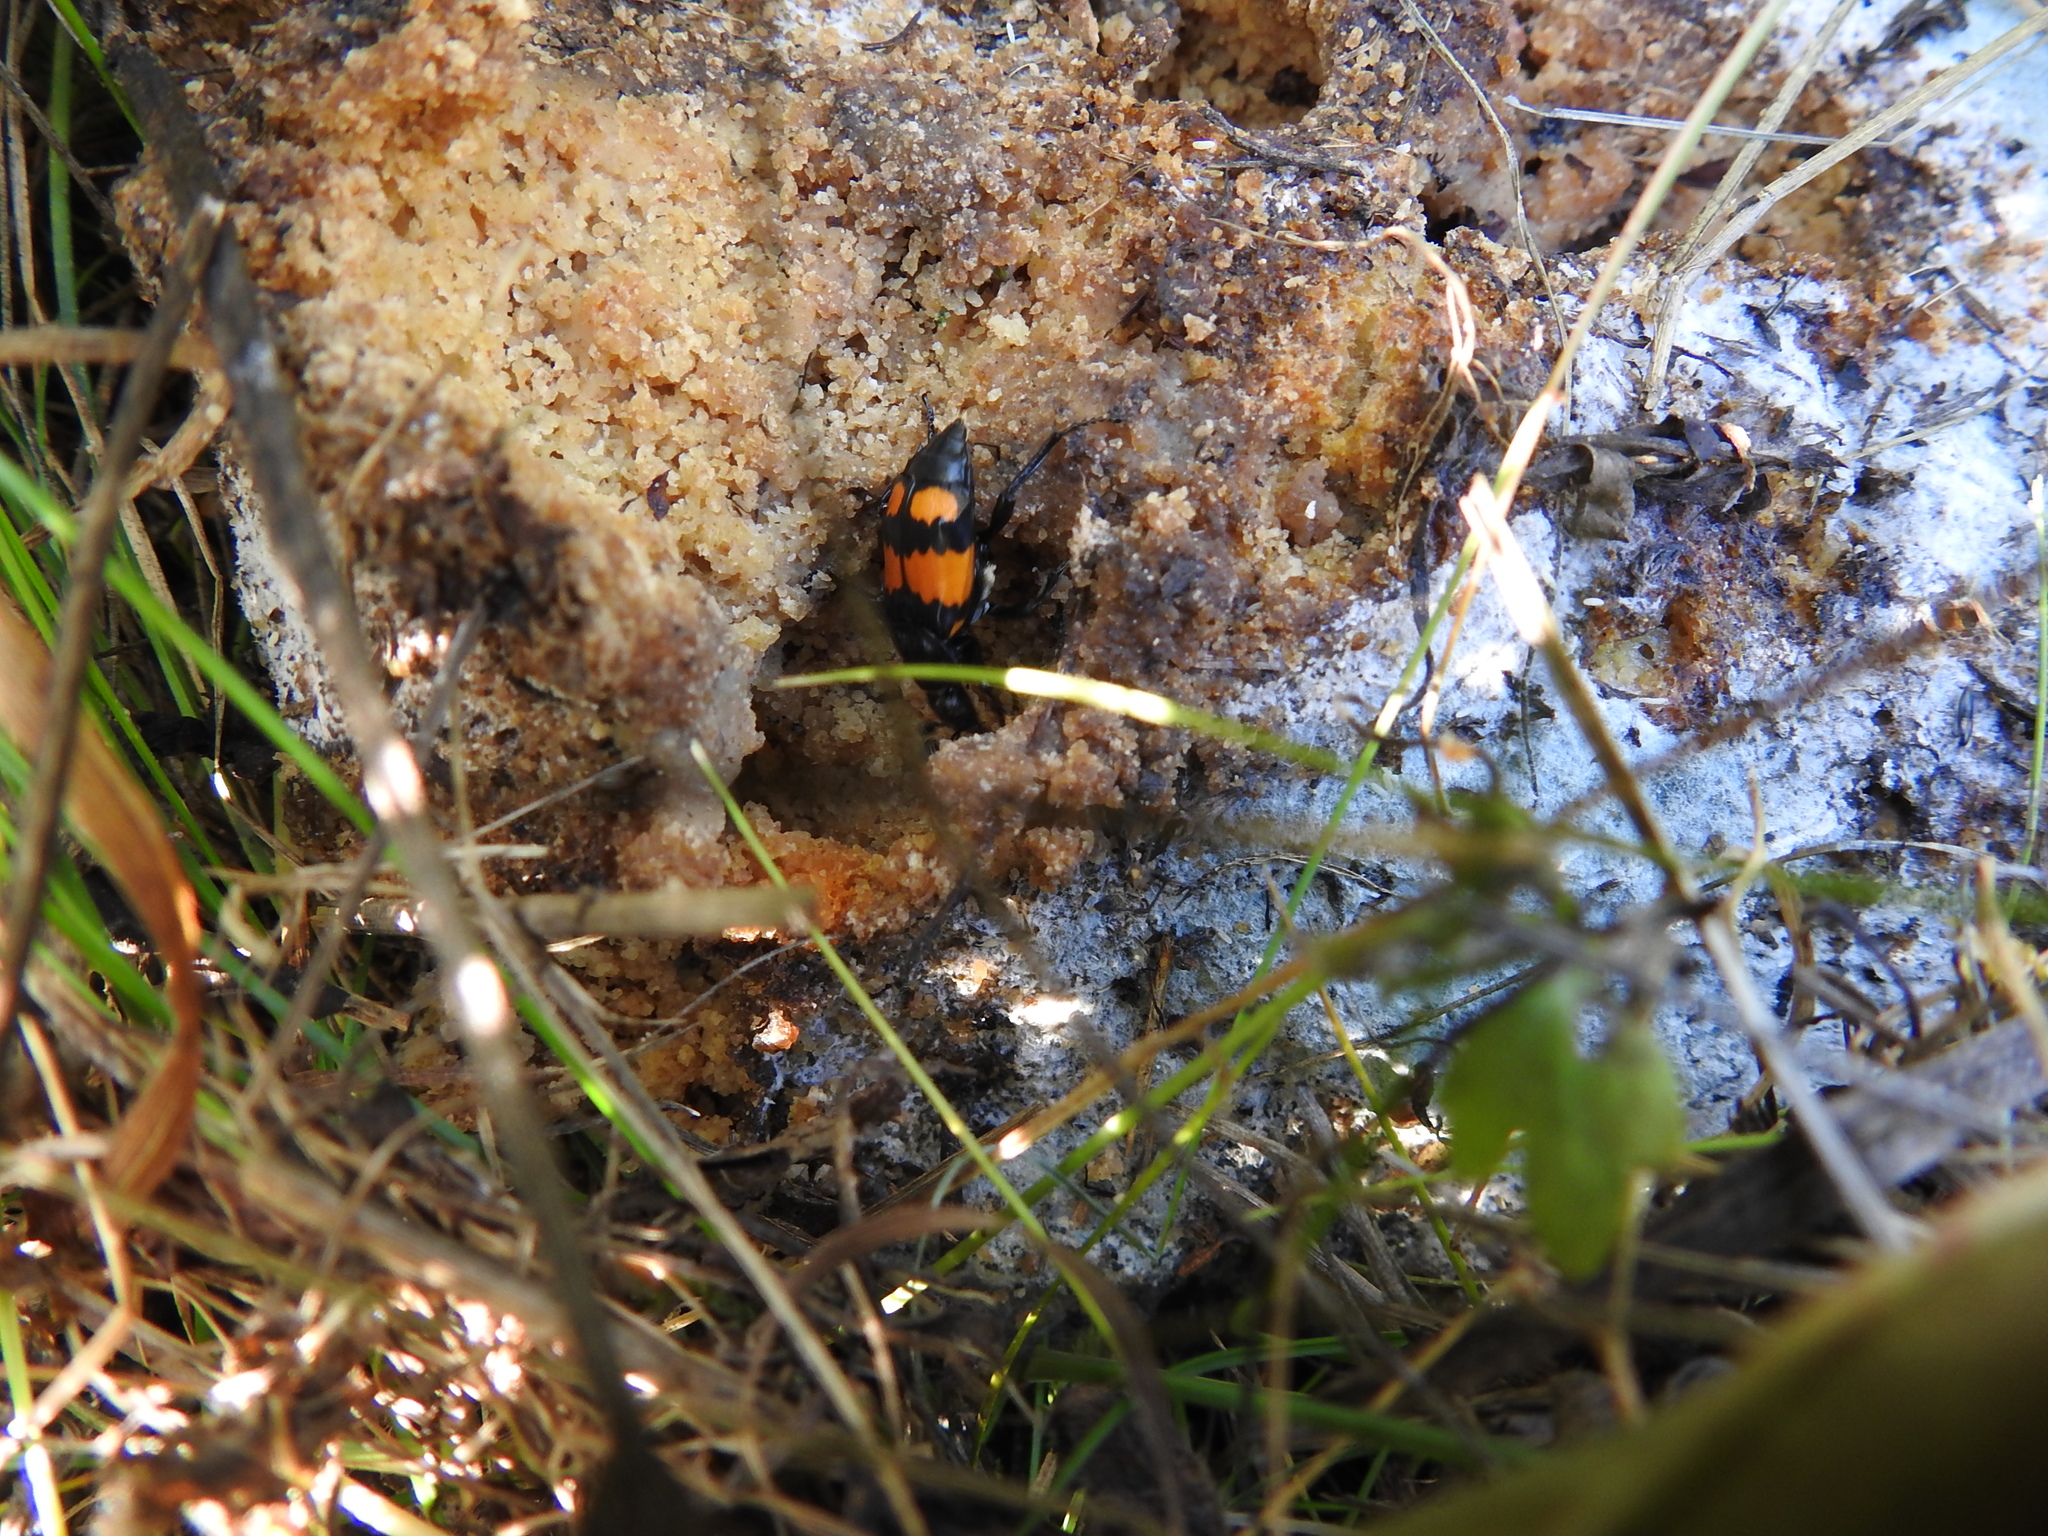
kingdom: Animalia
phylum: Arthropoda
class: Insecta
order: Coleoptera
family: Staphylinidae
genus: Nicrophorus
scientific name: Nicrophorus vespilloides
